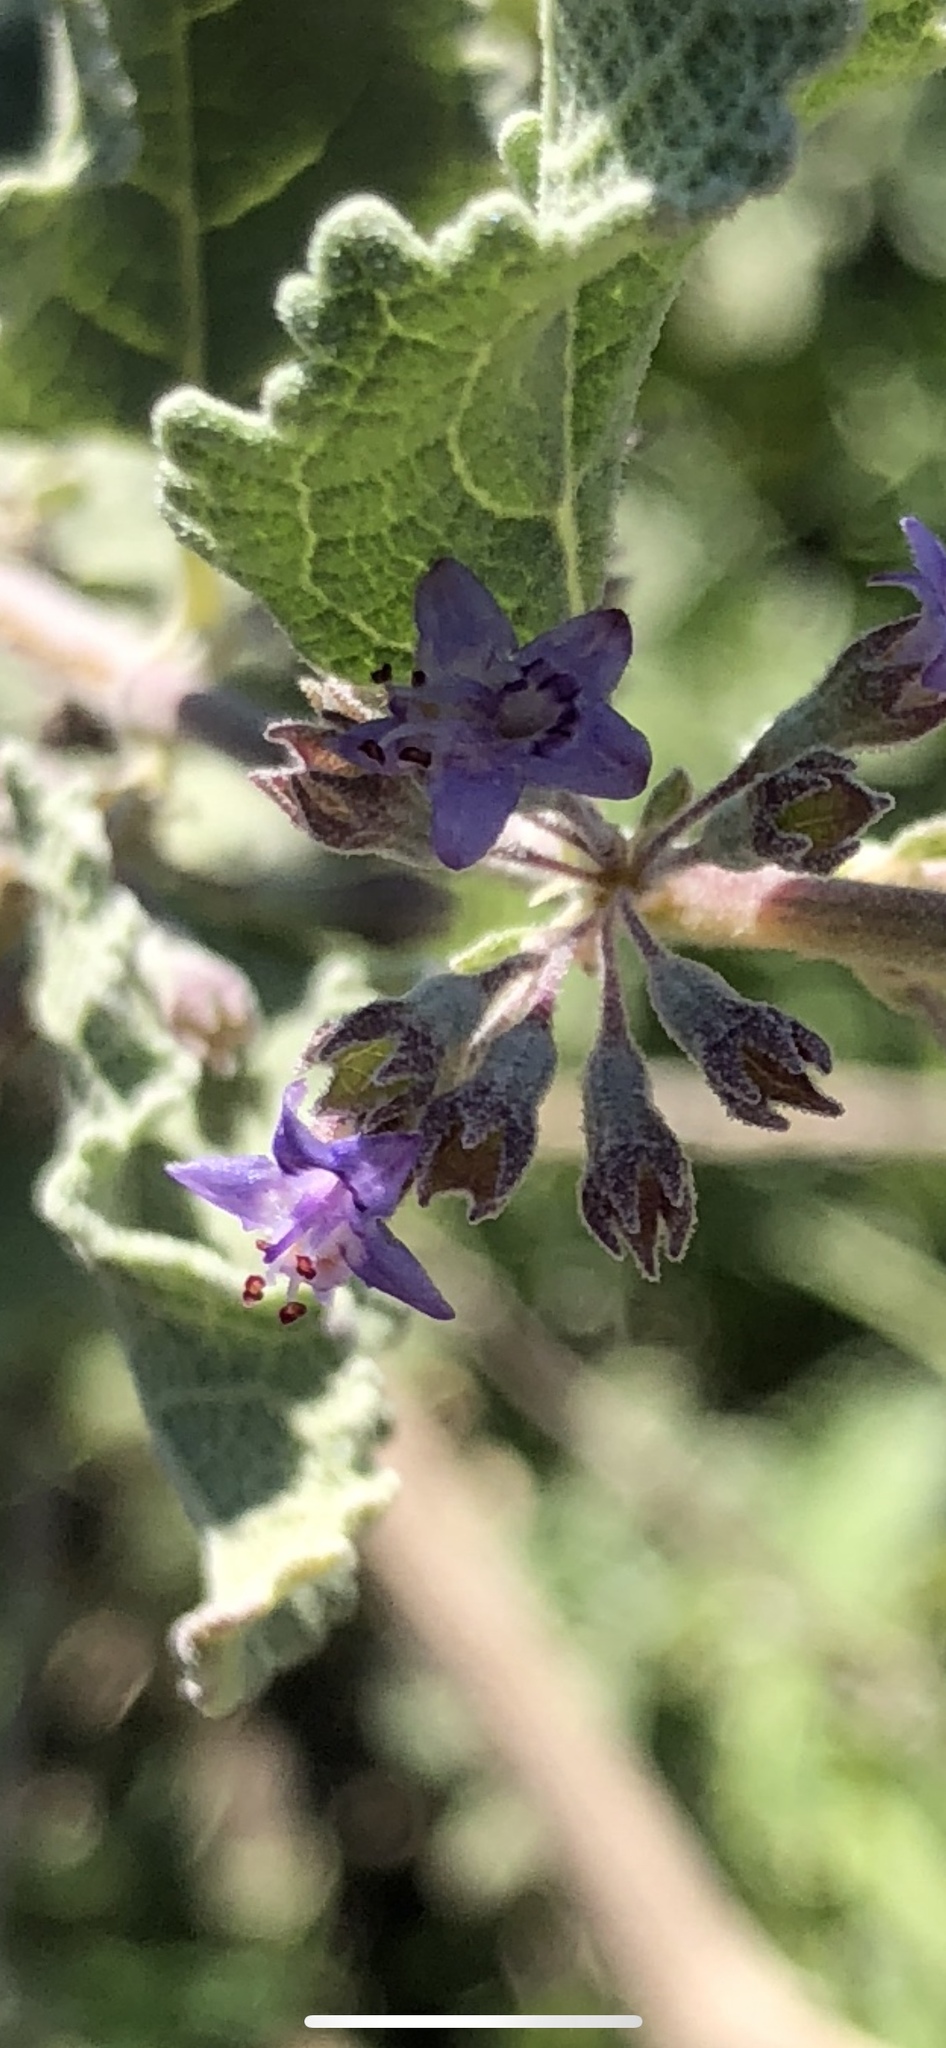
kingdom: Plantae
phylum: Tracheophyta
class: Magnoliopsida
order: Lamiales
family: Lamiaceae
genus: Condea
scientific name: Condea emoryi
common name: Chia
